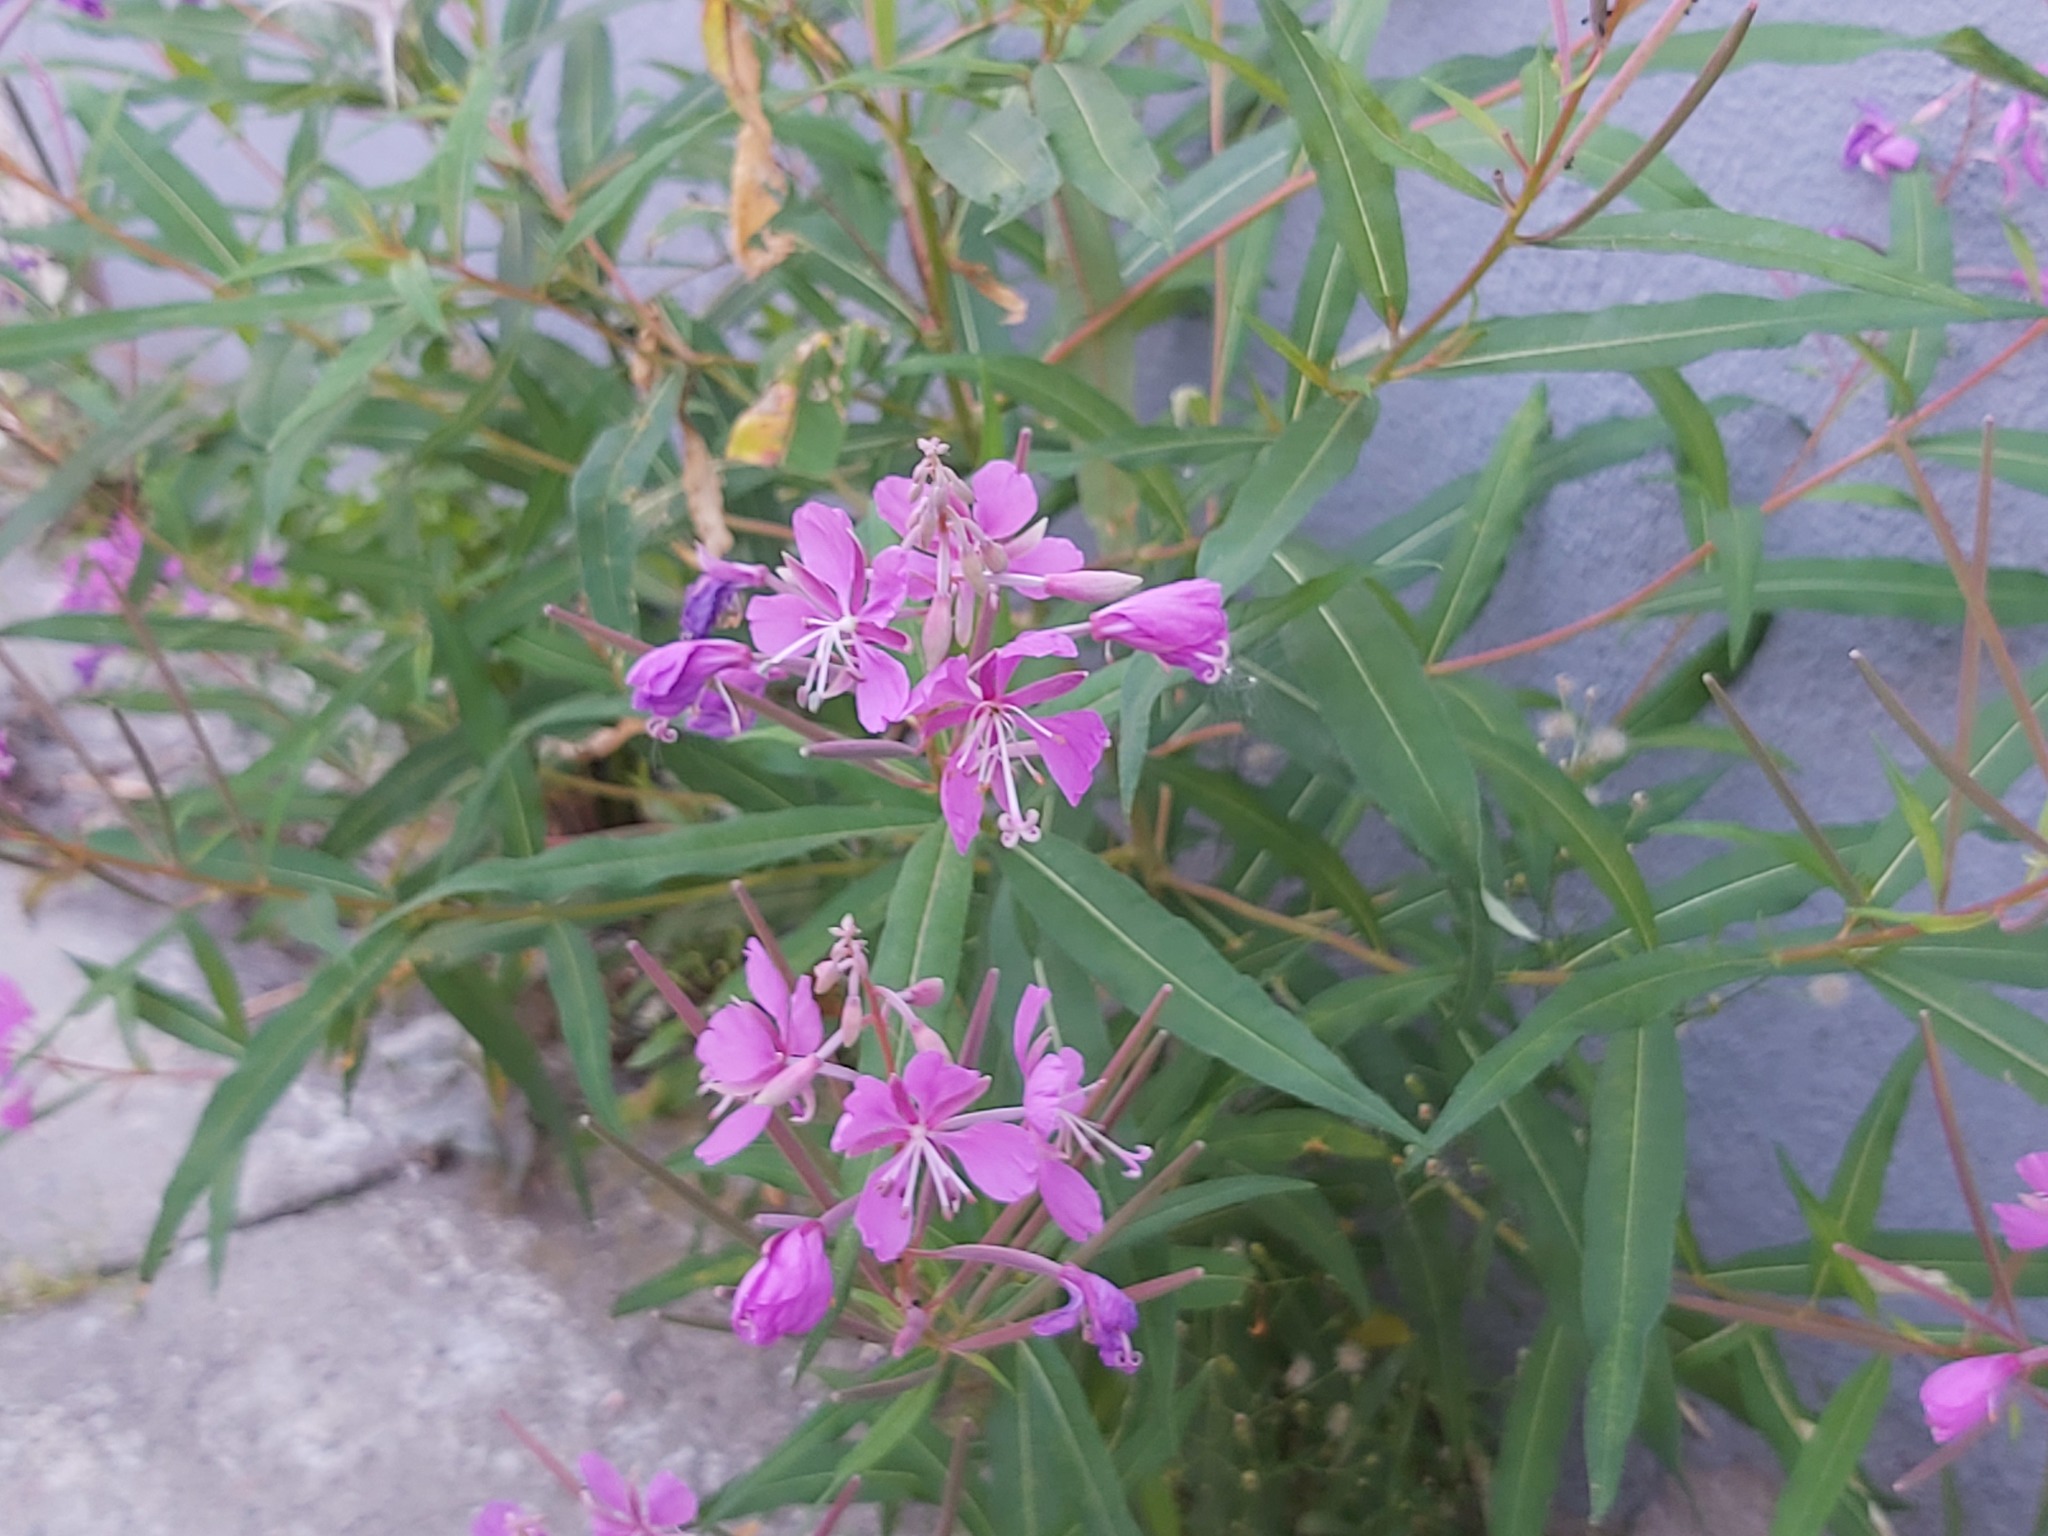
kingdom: Plantae
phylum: Tracheophyta
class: Magnoliopsida
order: Myrtales
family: Onagraceae
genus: Chamaenerion
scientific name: Chamaenerion angustifolium
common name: Fireweed
